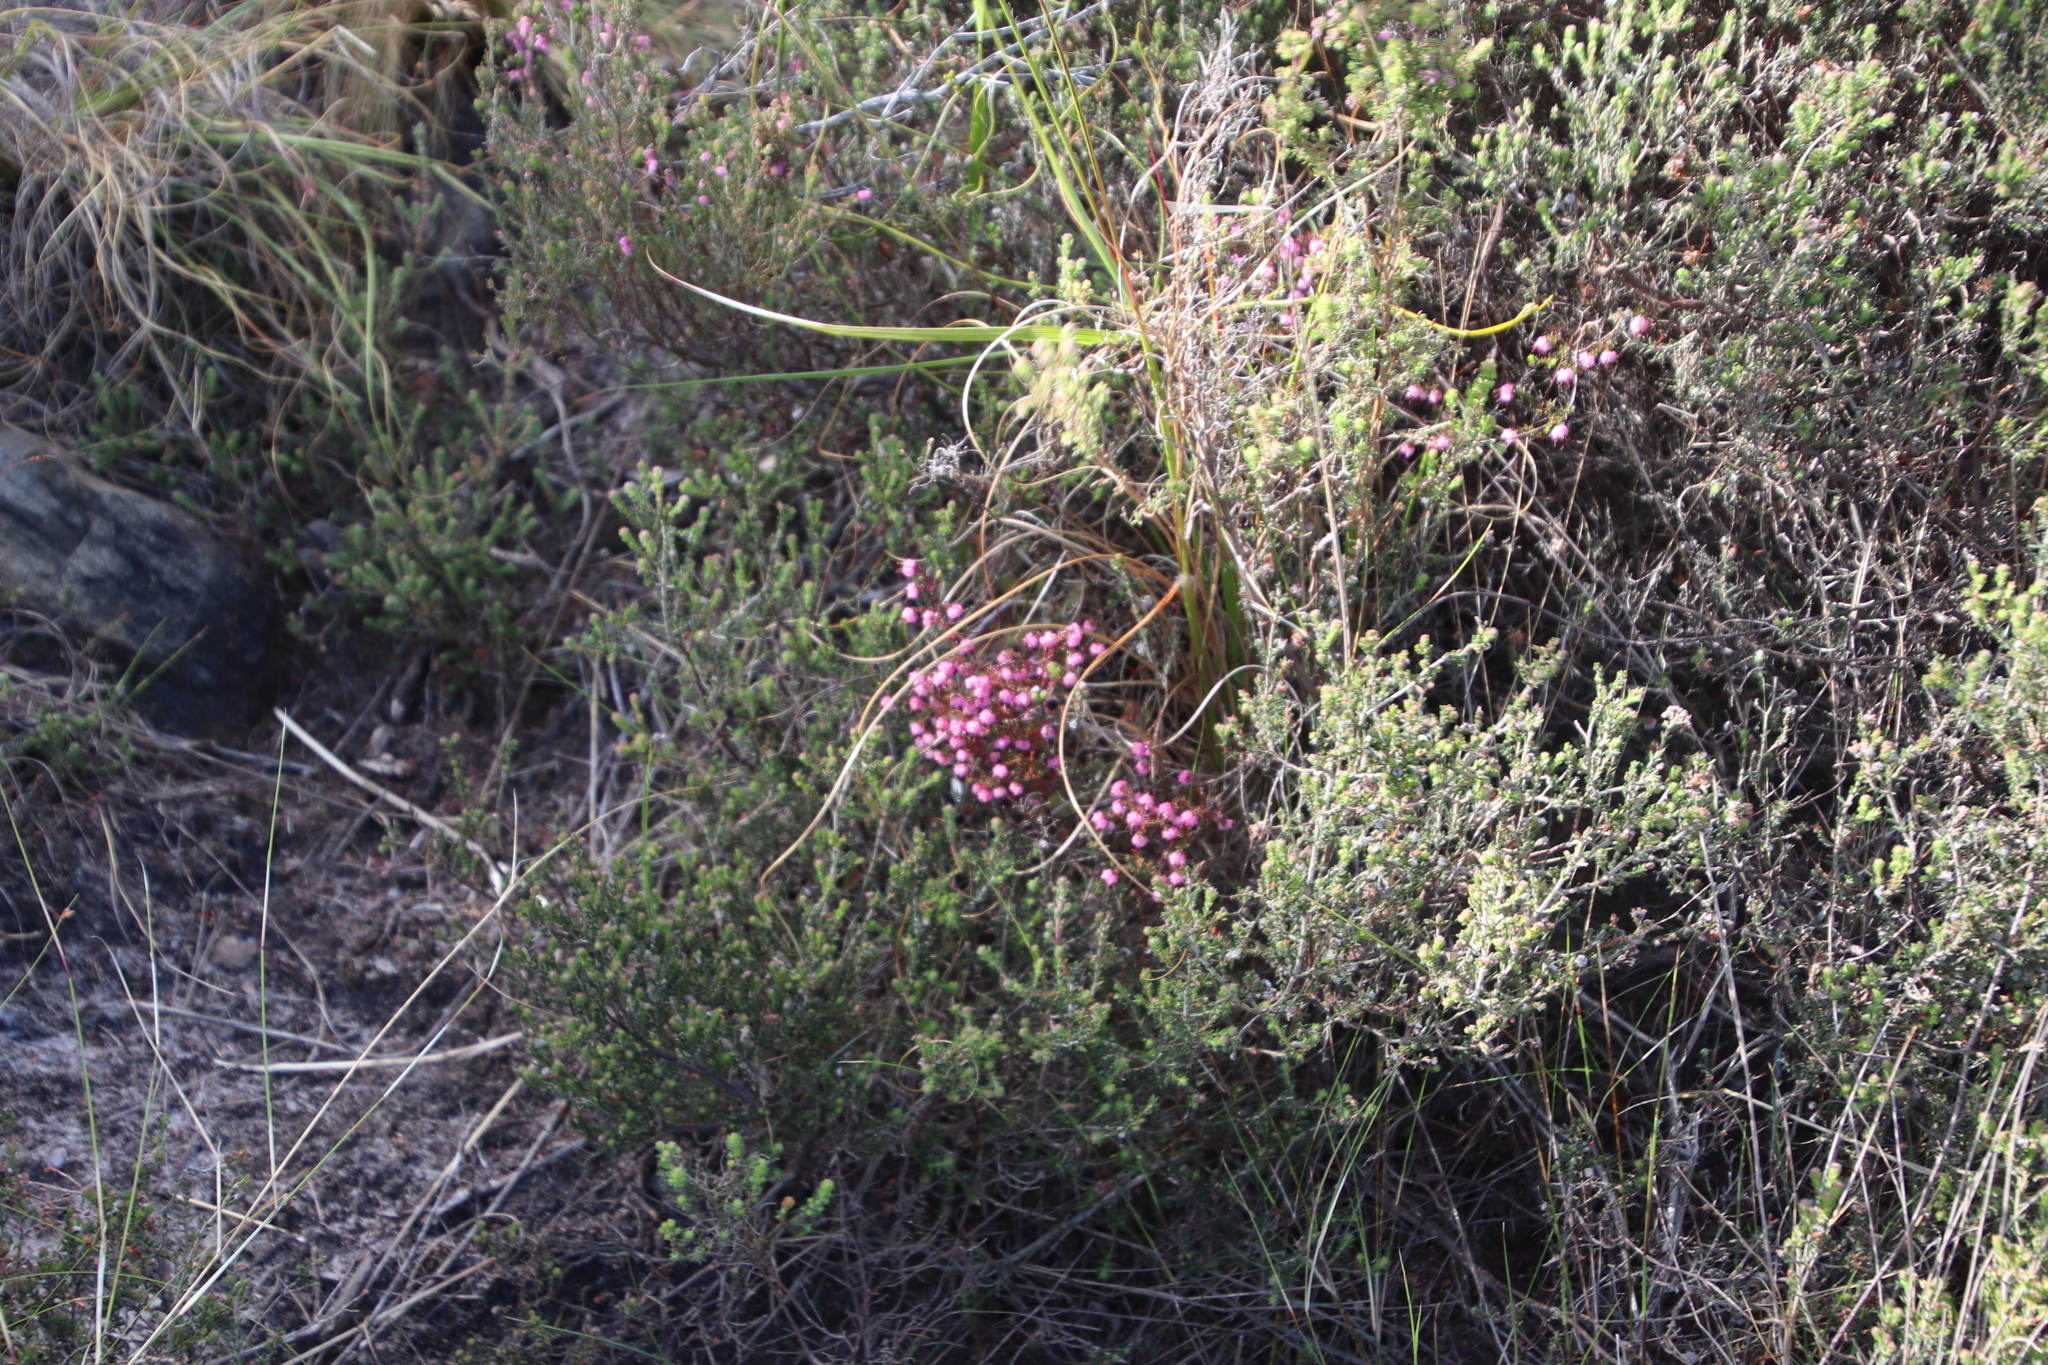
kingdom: Plantae
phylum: Tracheophyta
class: Magnoliopsida
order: Ericales
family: Ericaceae
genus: Erica
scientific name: Erica spumosa
